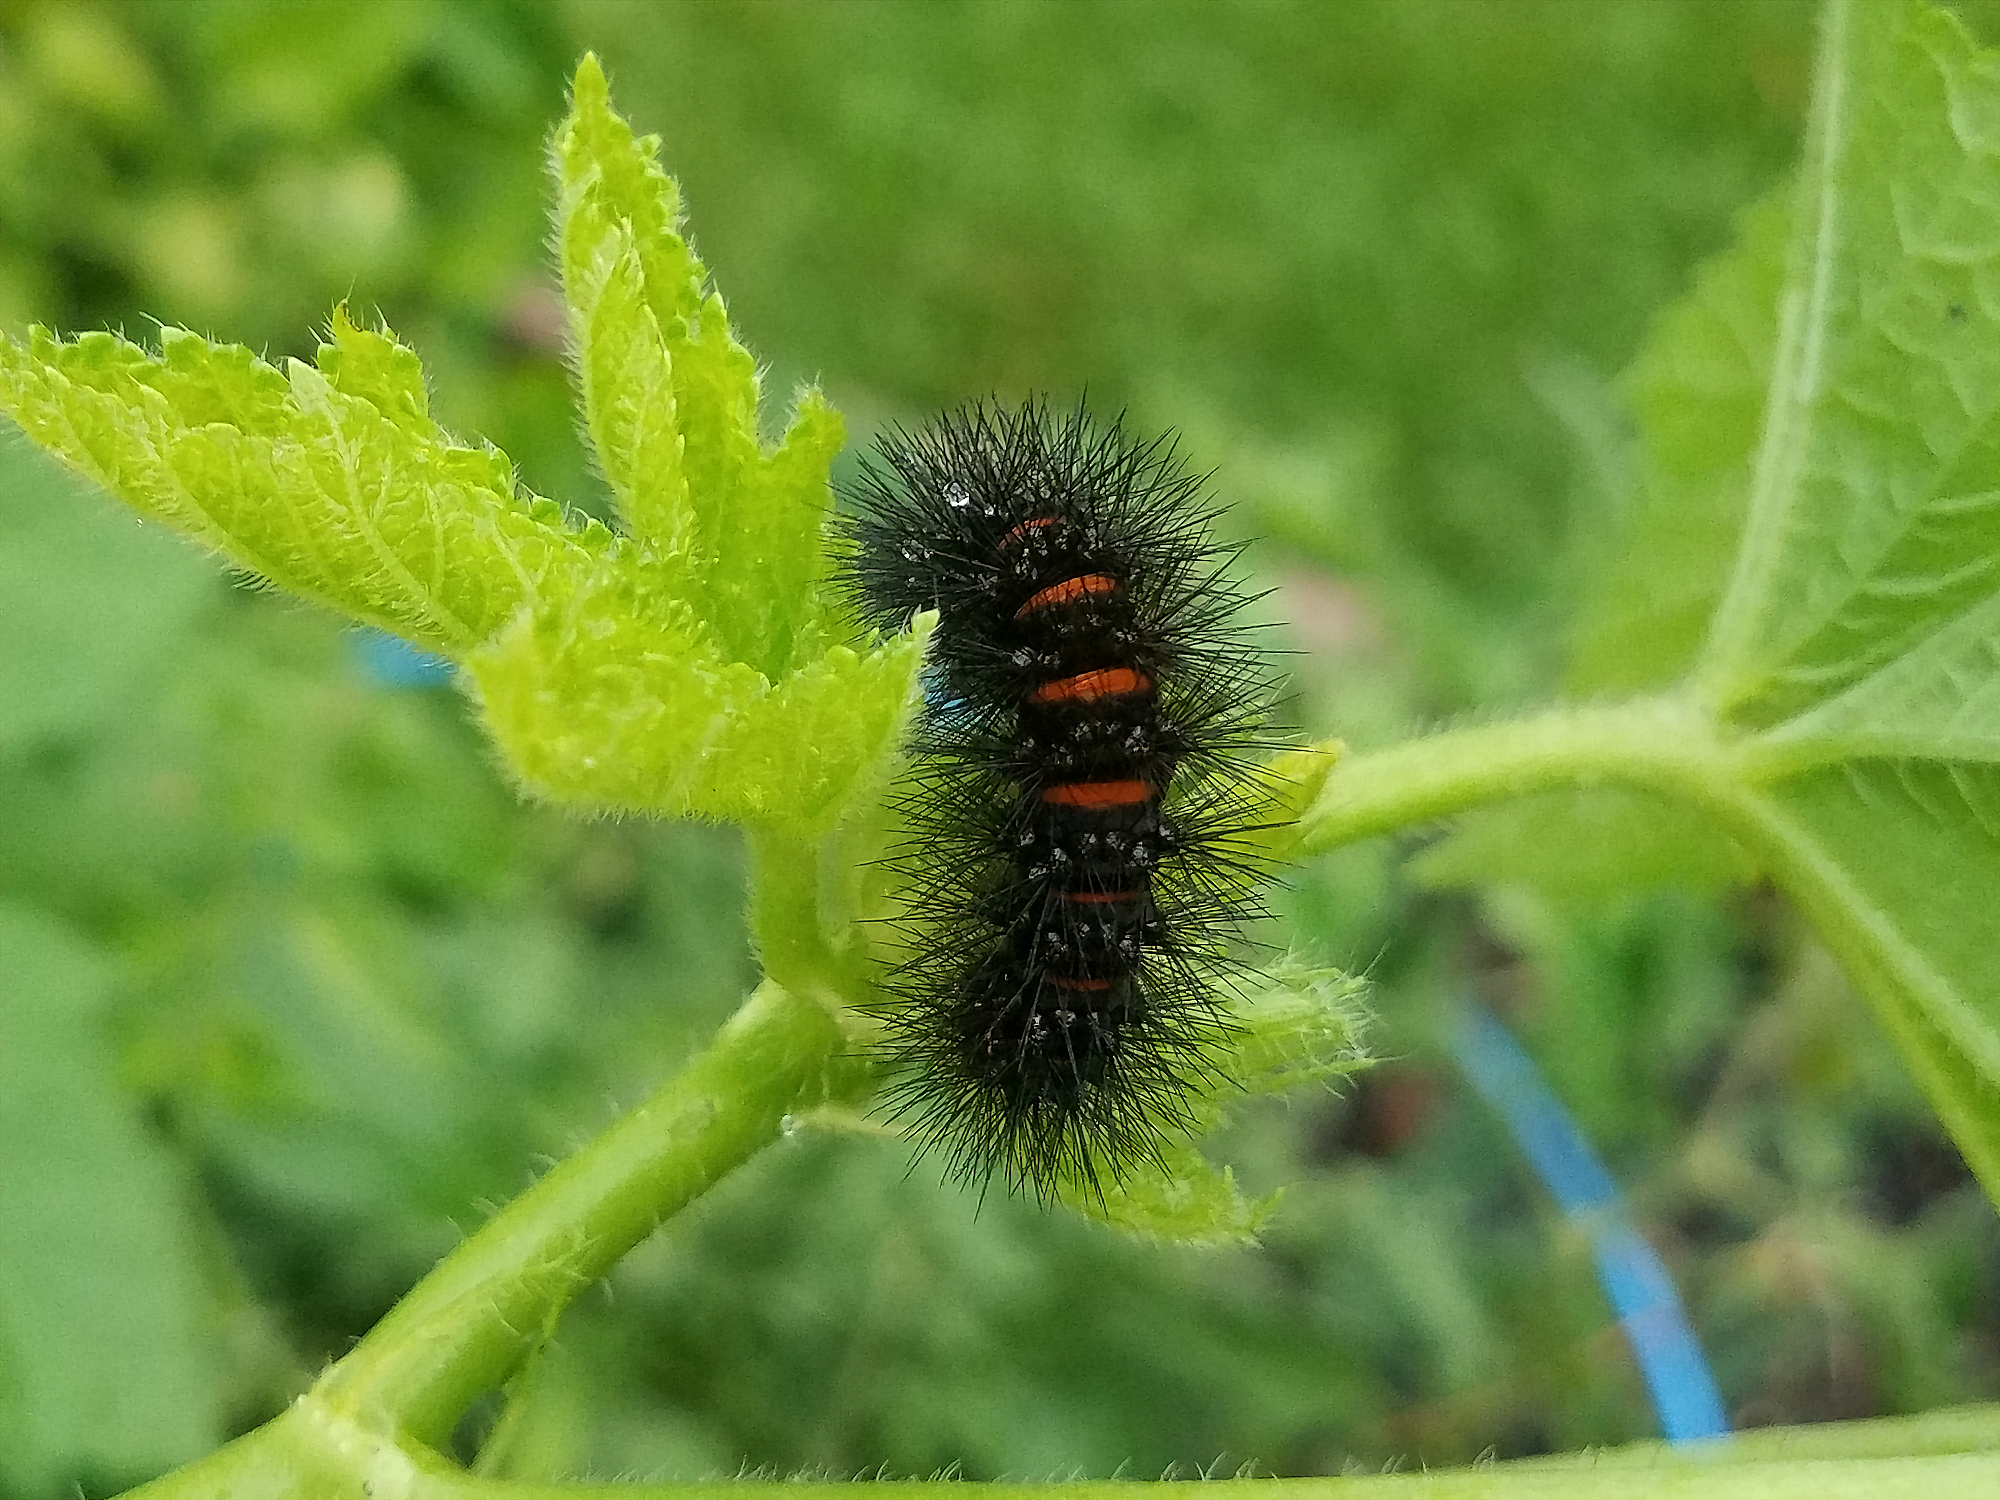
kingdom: Animalia
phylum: Arthropoda
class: Insecta
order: Lepidoptera
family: Erebidae
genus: Hypercompe
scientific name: Hypercompe scribonia
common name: Giant leopard moth
